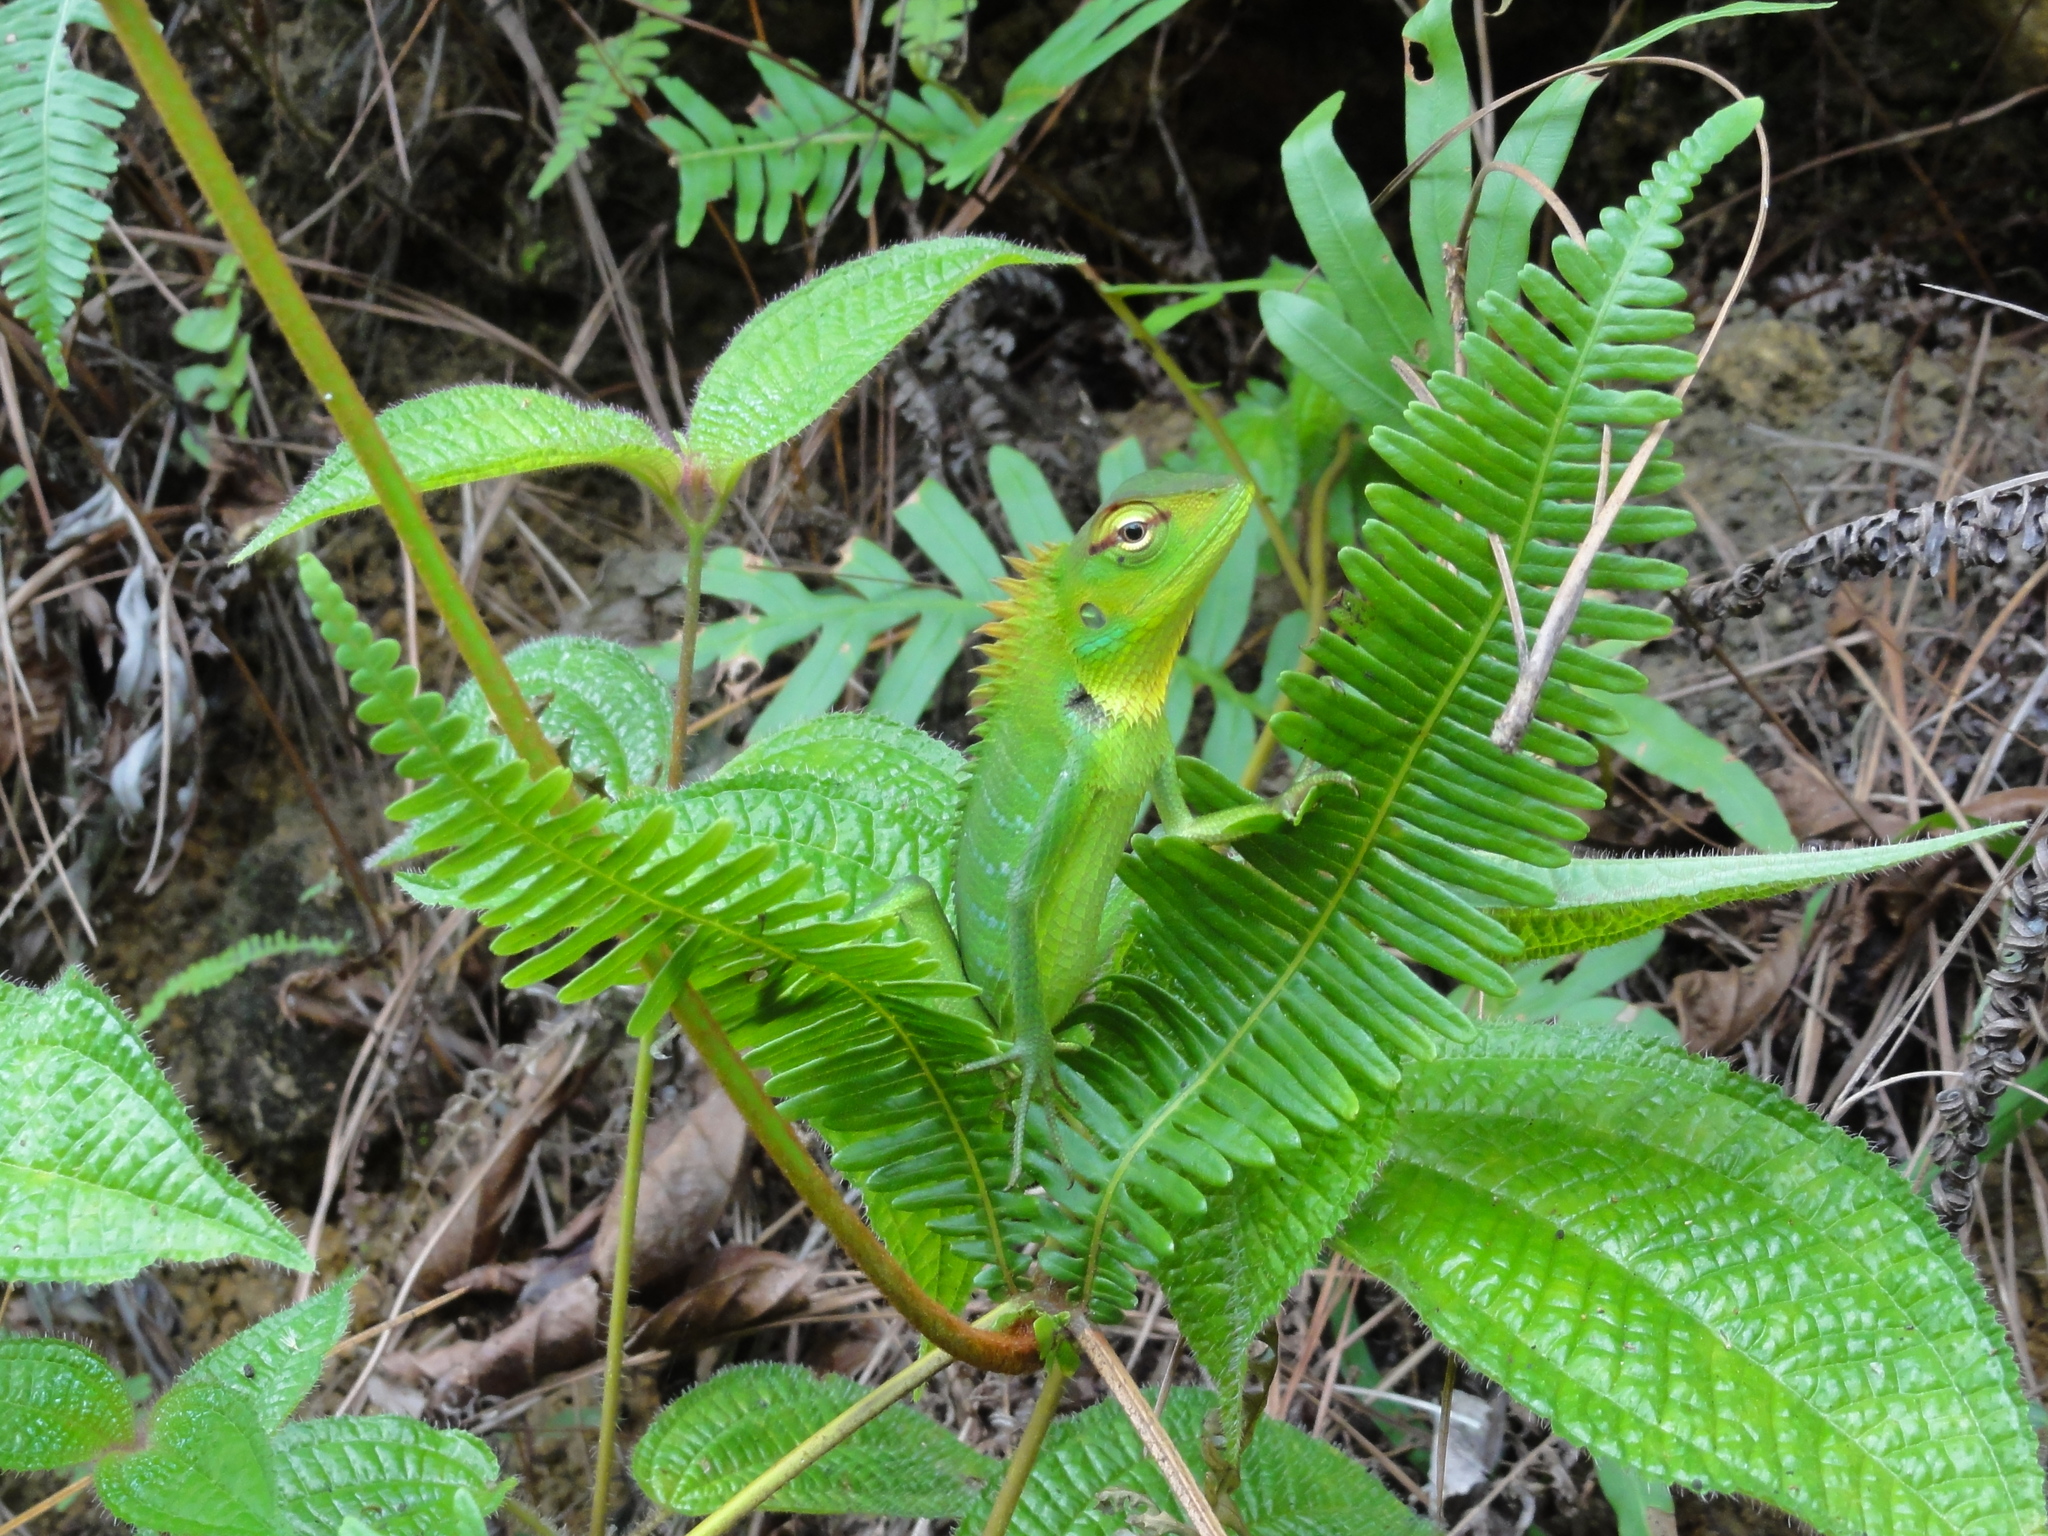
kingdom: Animalia
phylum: Chordata
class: Squamata
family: Agamidae
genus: Calotes
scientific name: Calotes calotes
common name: Common green forest lizard
